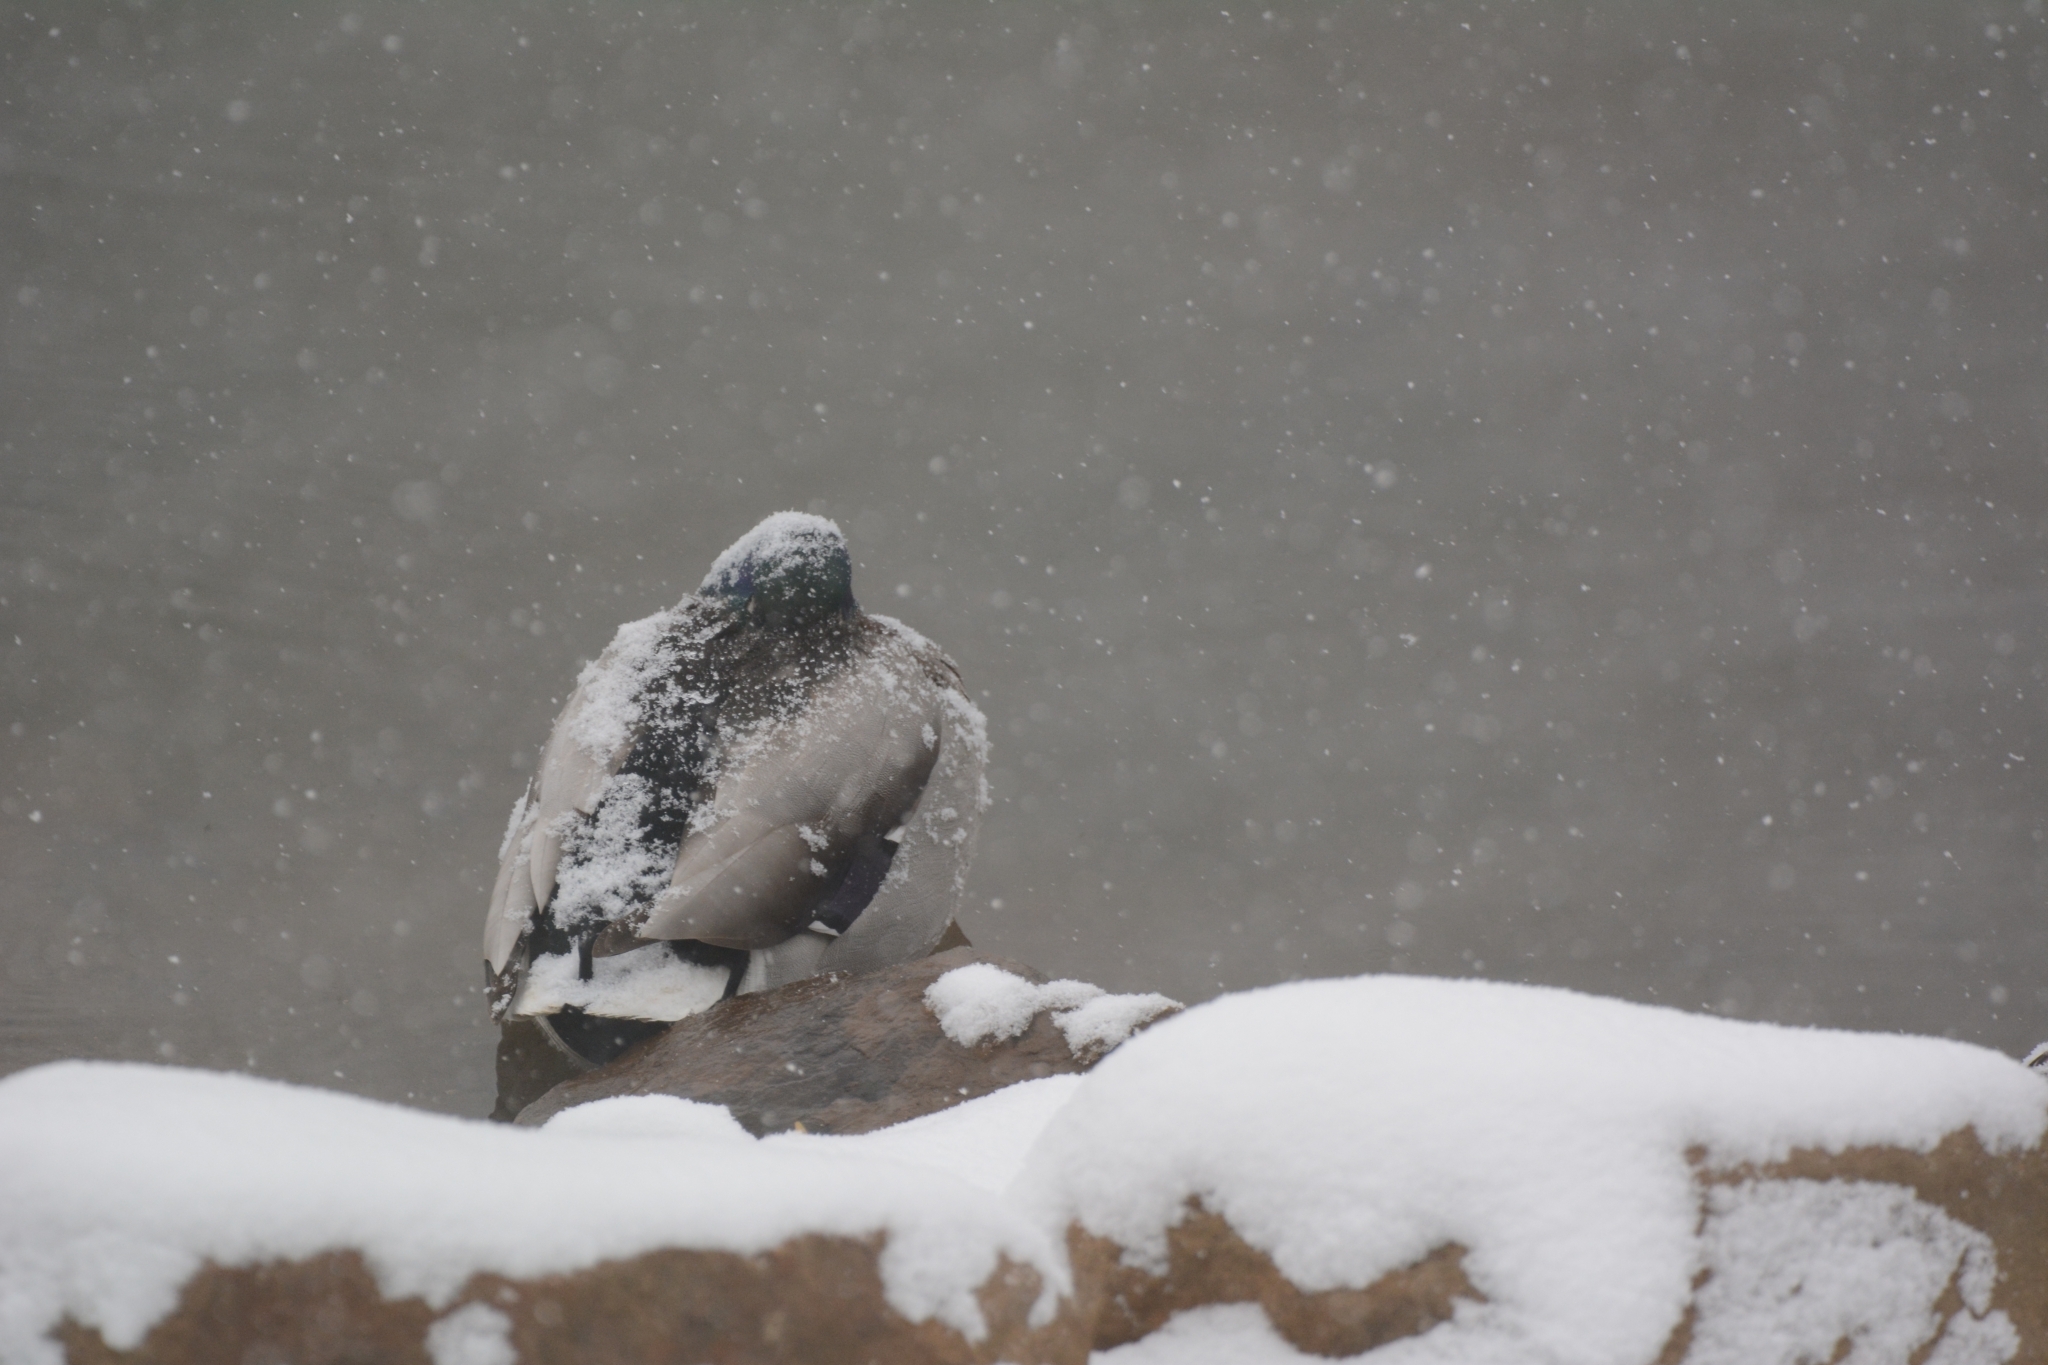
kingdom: Animalia
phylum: Chordata
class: Aves
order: Anseriformes
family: Anatidae
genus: Anas
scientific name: Anas platyrhynchos
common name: Mallard
